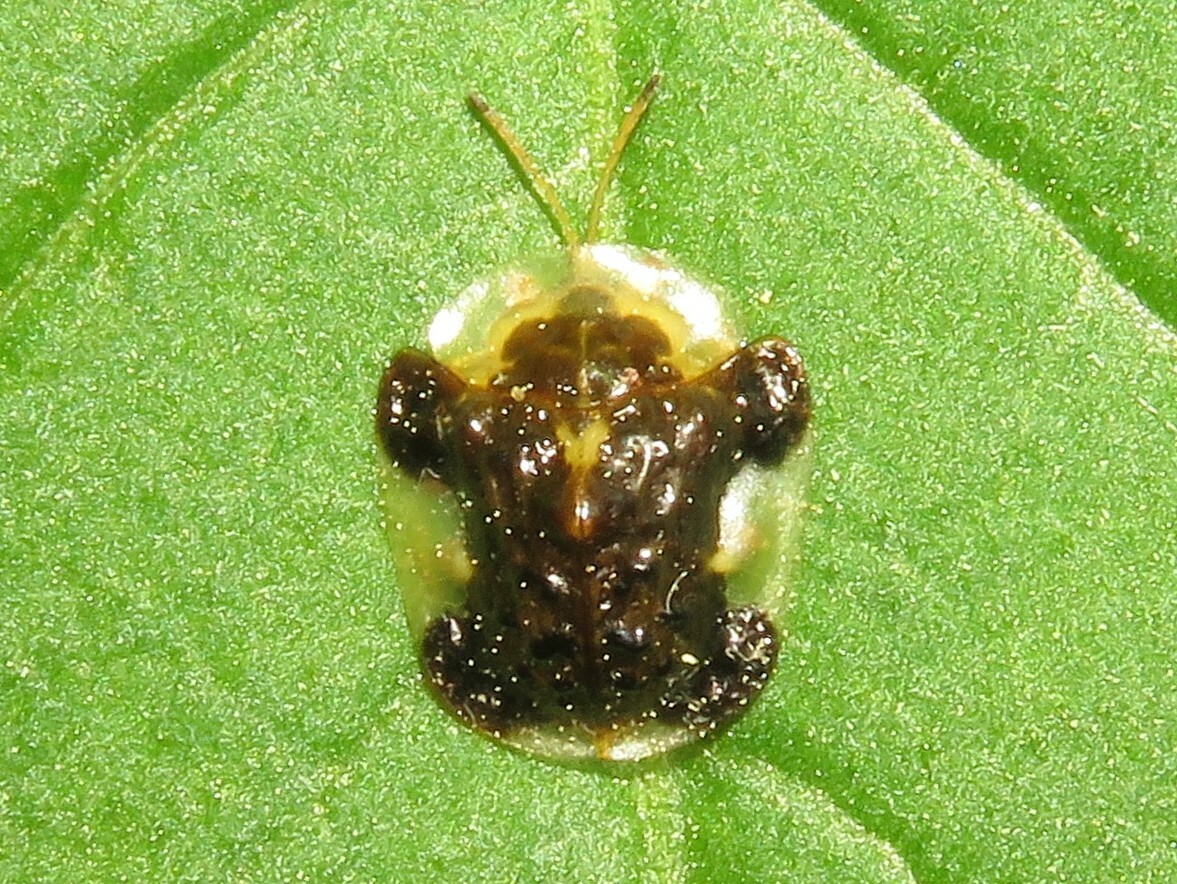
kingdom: Animalia
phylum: Arthropoda
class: Insecta
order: Coleoptera
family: Chrysomelidae
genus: Helocassis
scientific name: Helocassis clavata
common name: Clavate tortoise beetle
